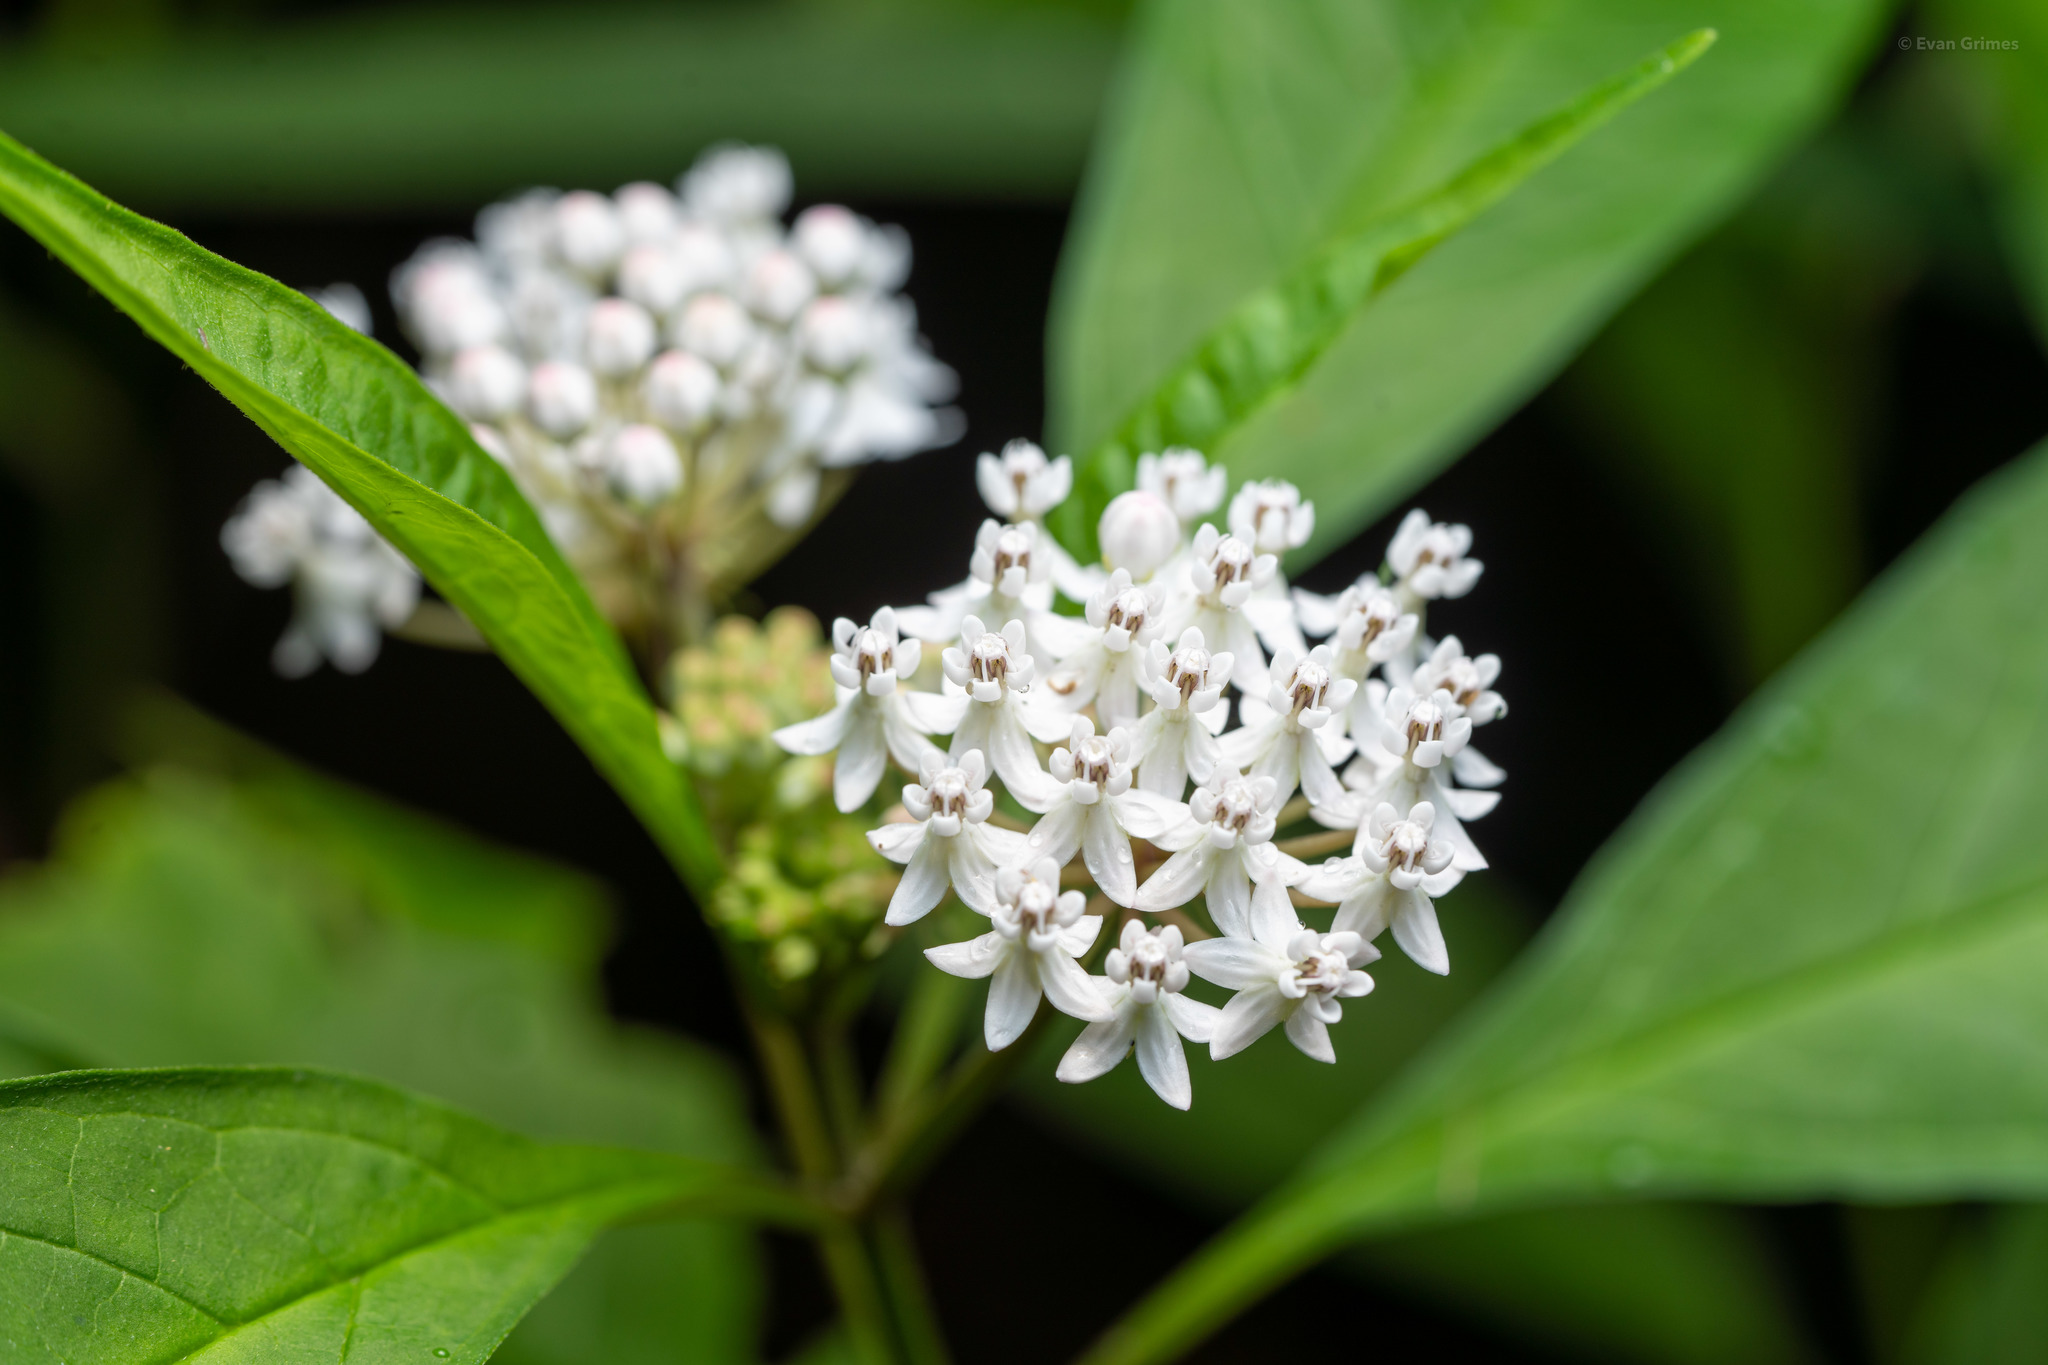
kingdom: Plantae
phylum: Tracheophyta
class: Magnoliopsida
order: Gentianales
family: Apocynaceae
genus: Asclepias
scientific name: Asclepias perennis
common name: Smooth-seed milkweed
